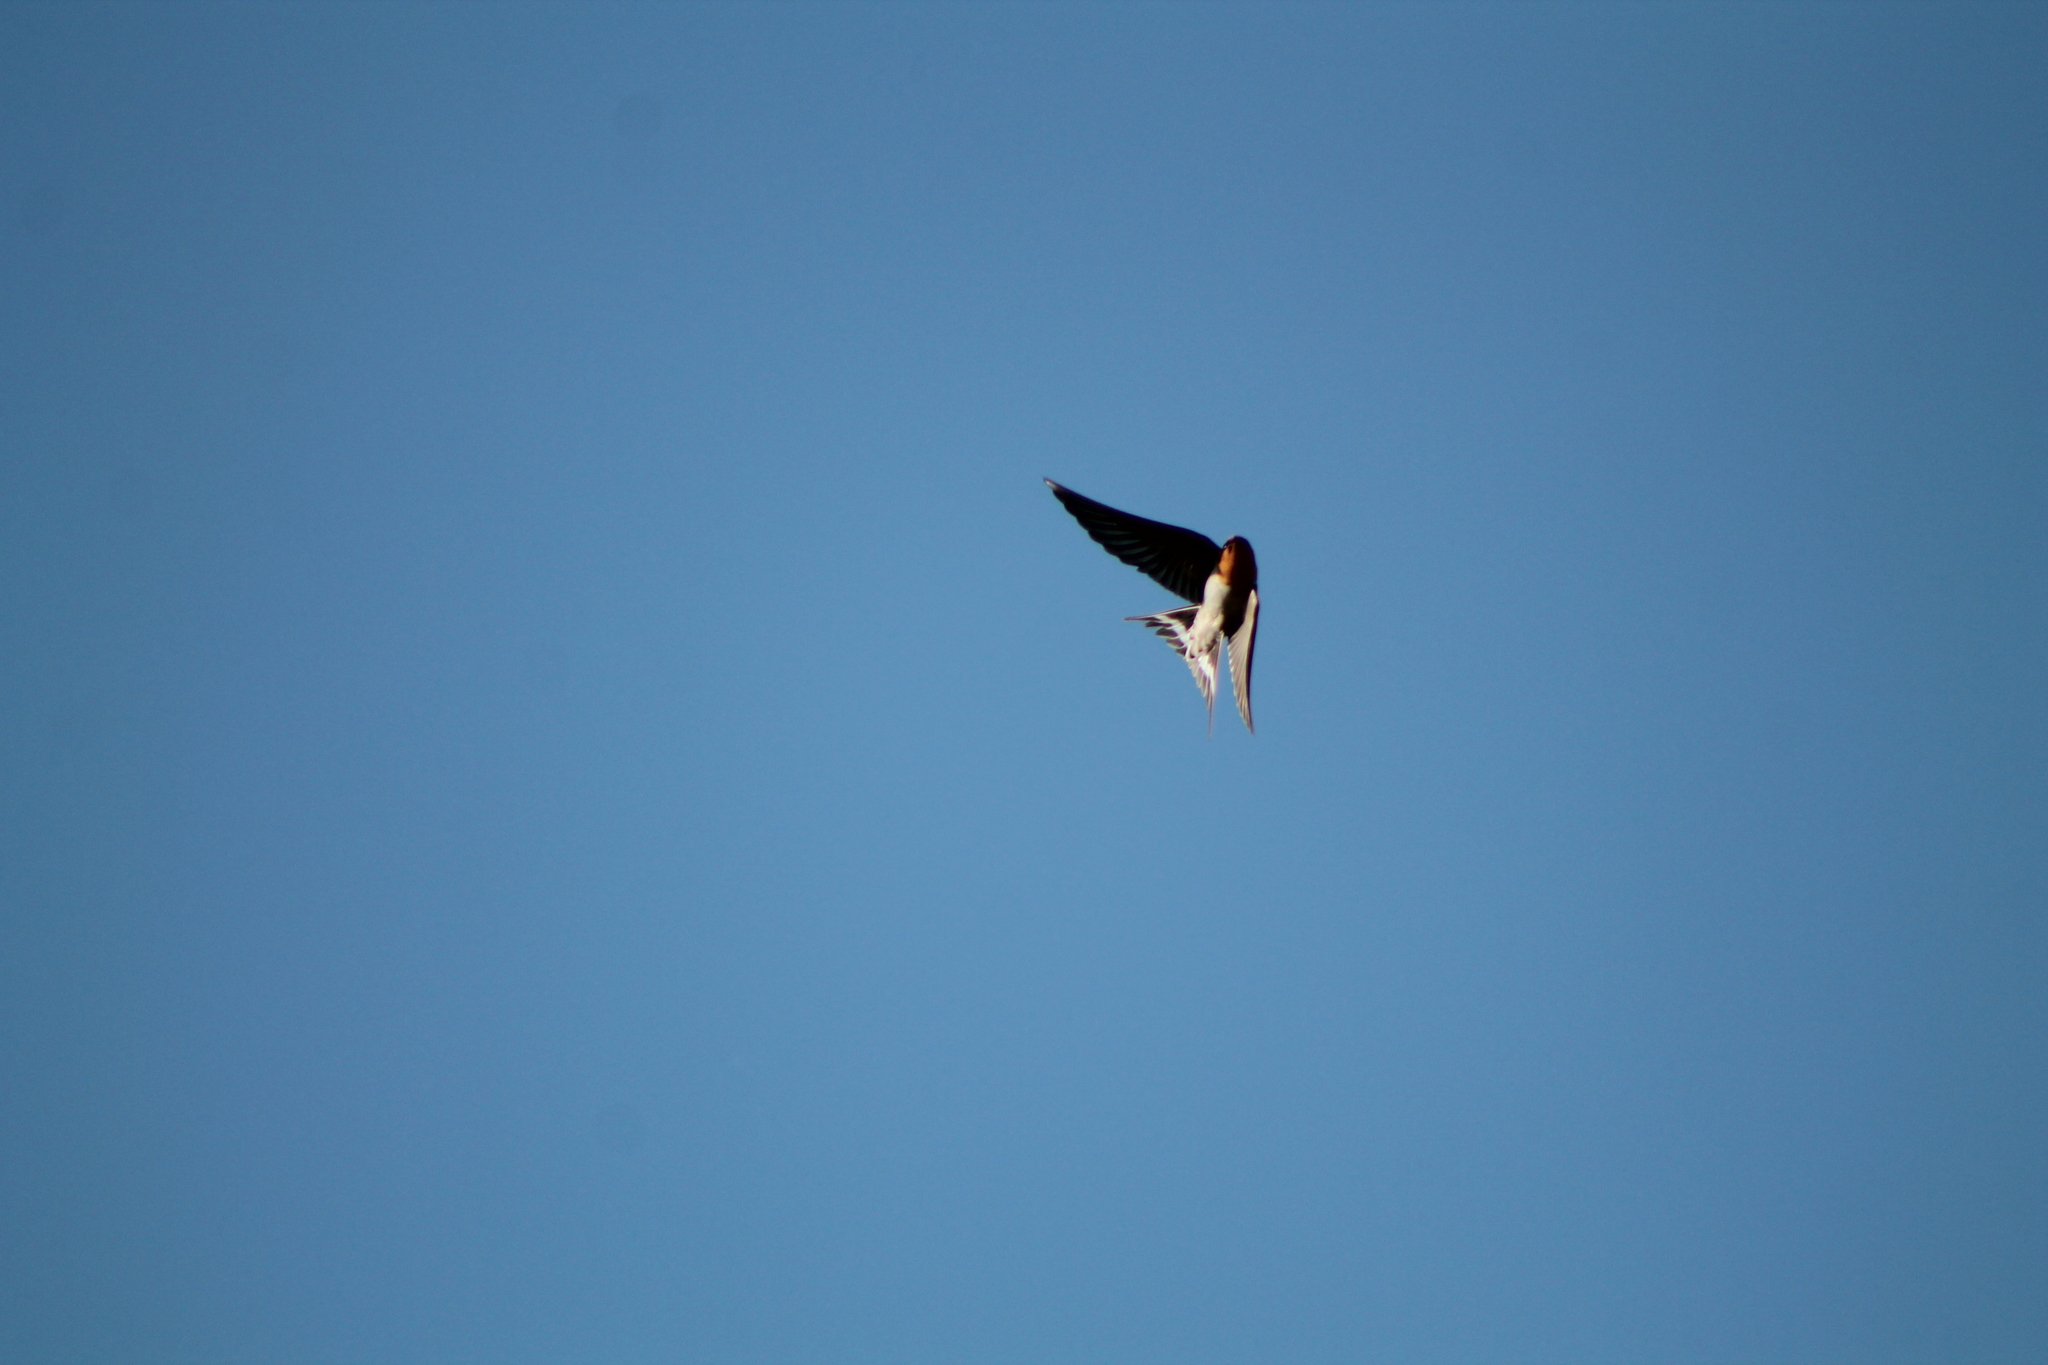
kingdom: Animalia
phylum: Chordata
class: Aves
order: Passeriformes
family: Hirundinidae
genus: Hirundo
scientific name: Hirundo neoxena
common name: Welcome swallow
